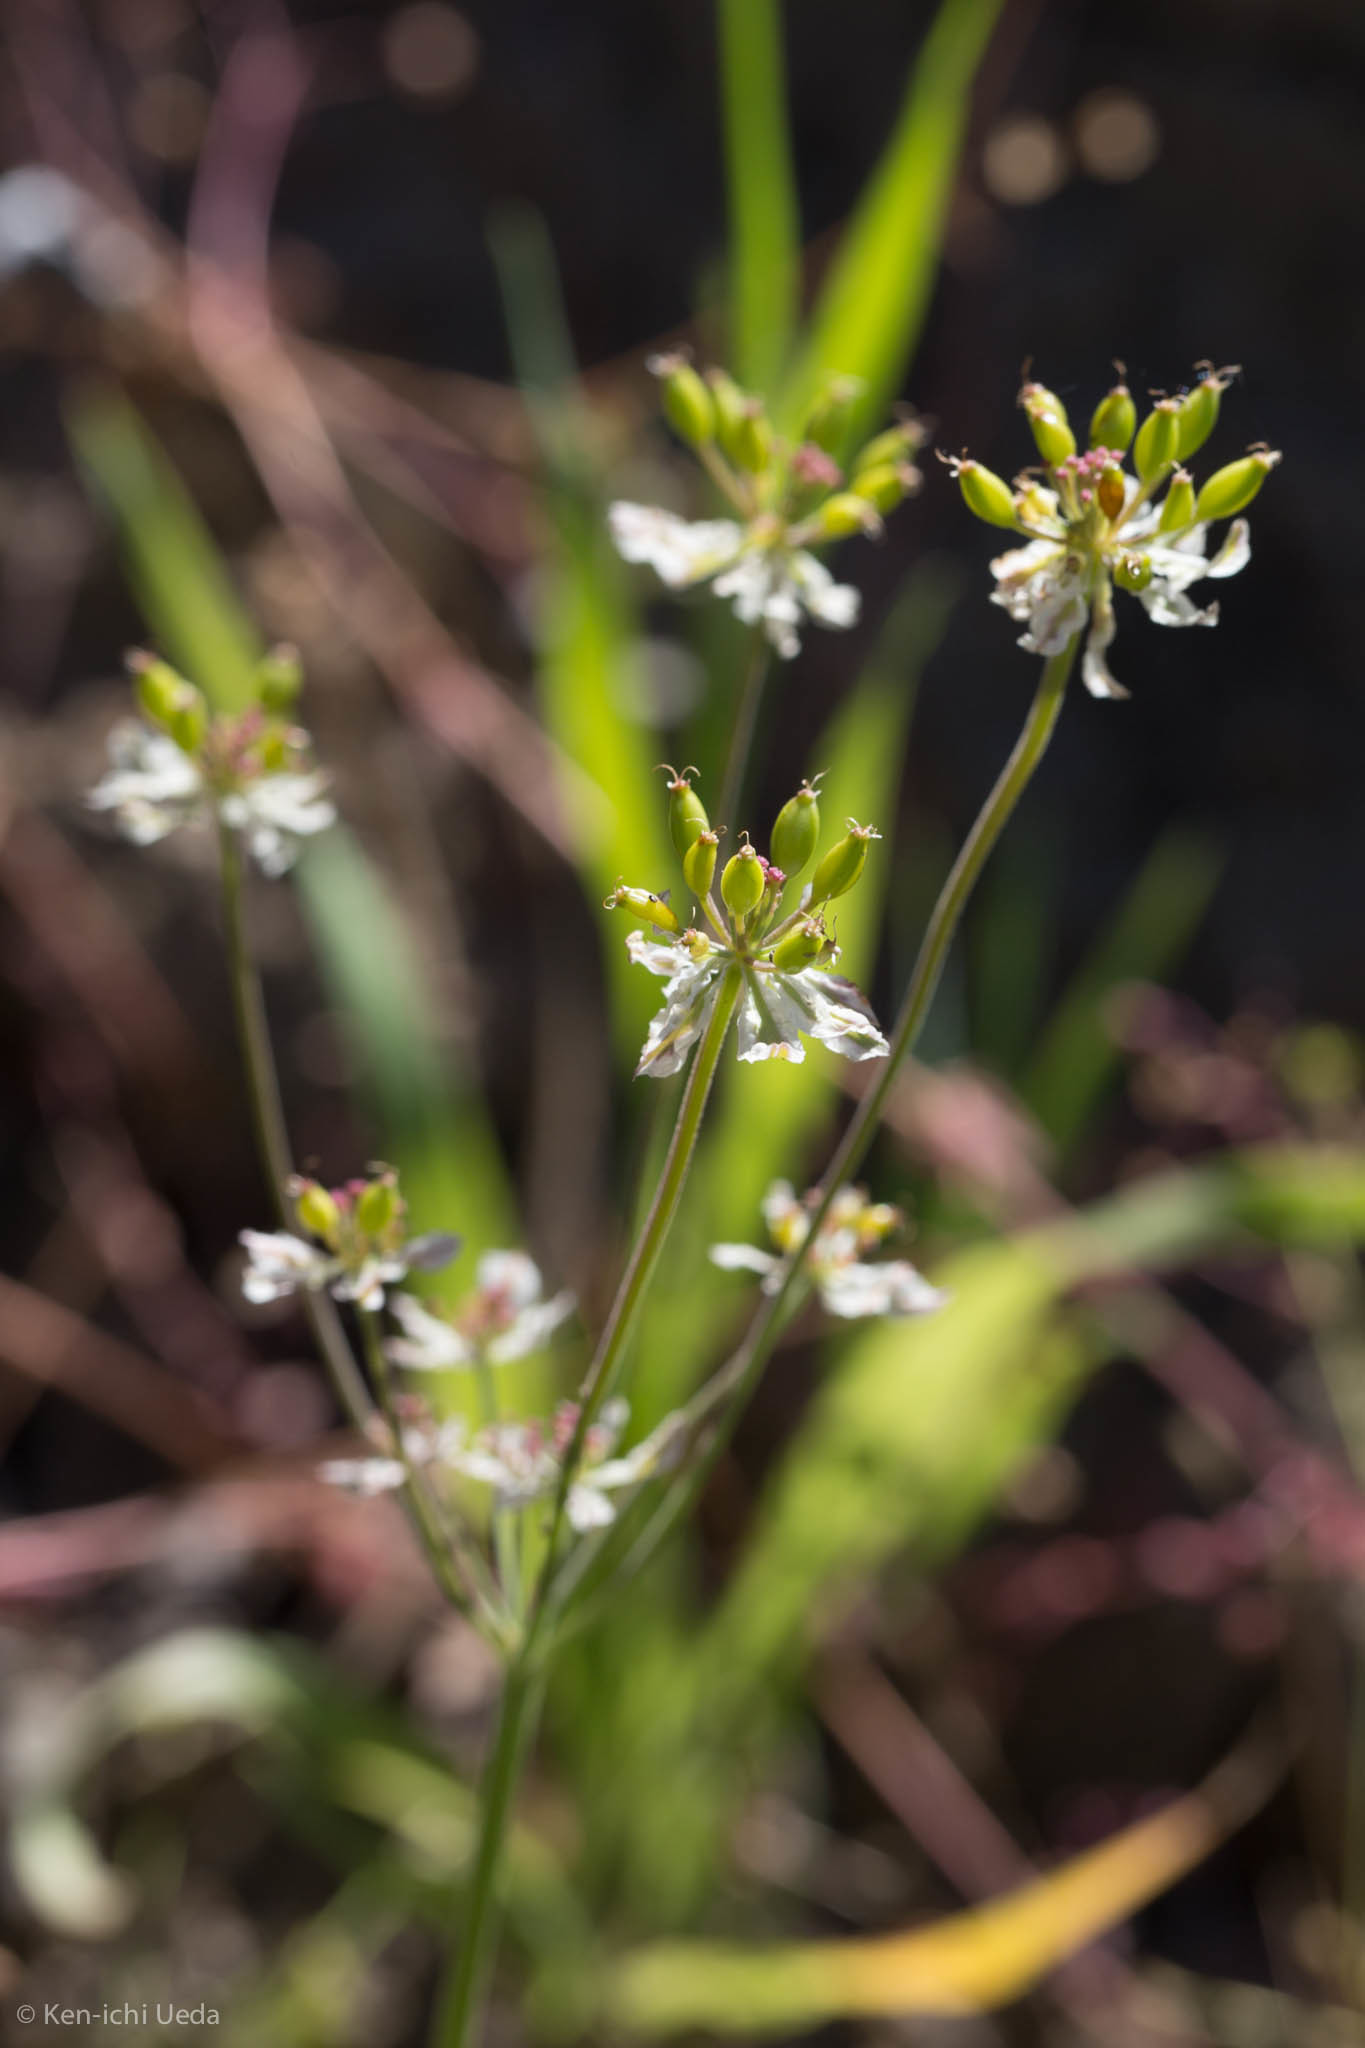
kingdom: Plantae
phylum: Tracheophyta
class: Magnoliopsida
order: Apiales
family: Apiaceae
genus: Lomatium
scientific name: Lomatium hooveri
